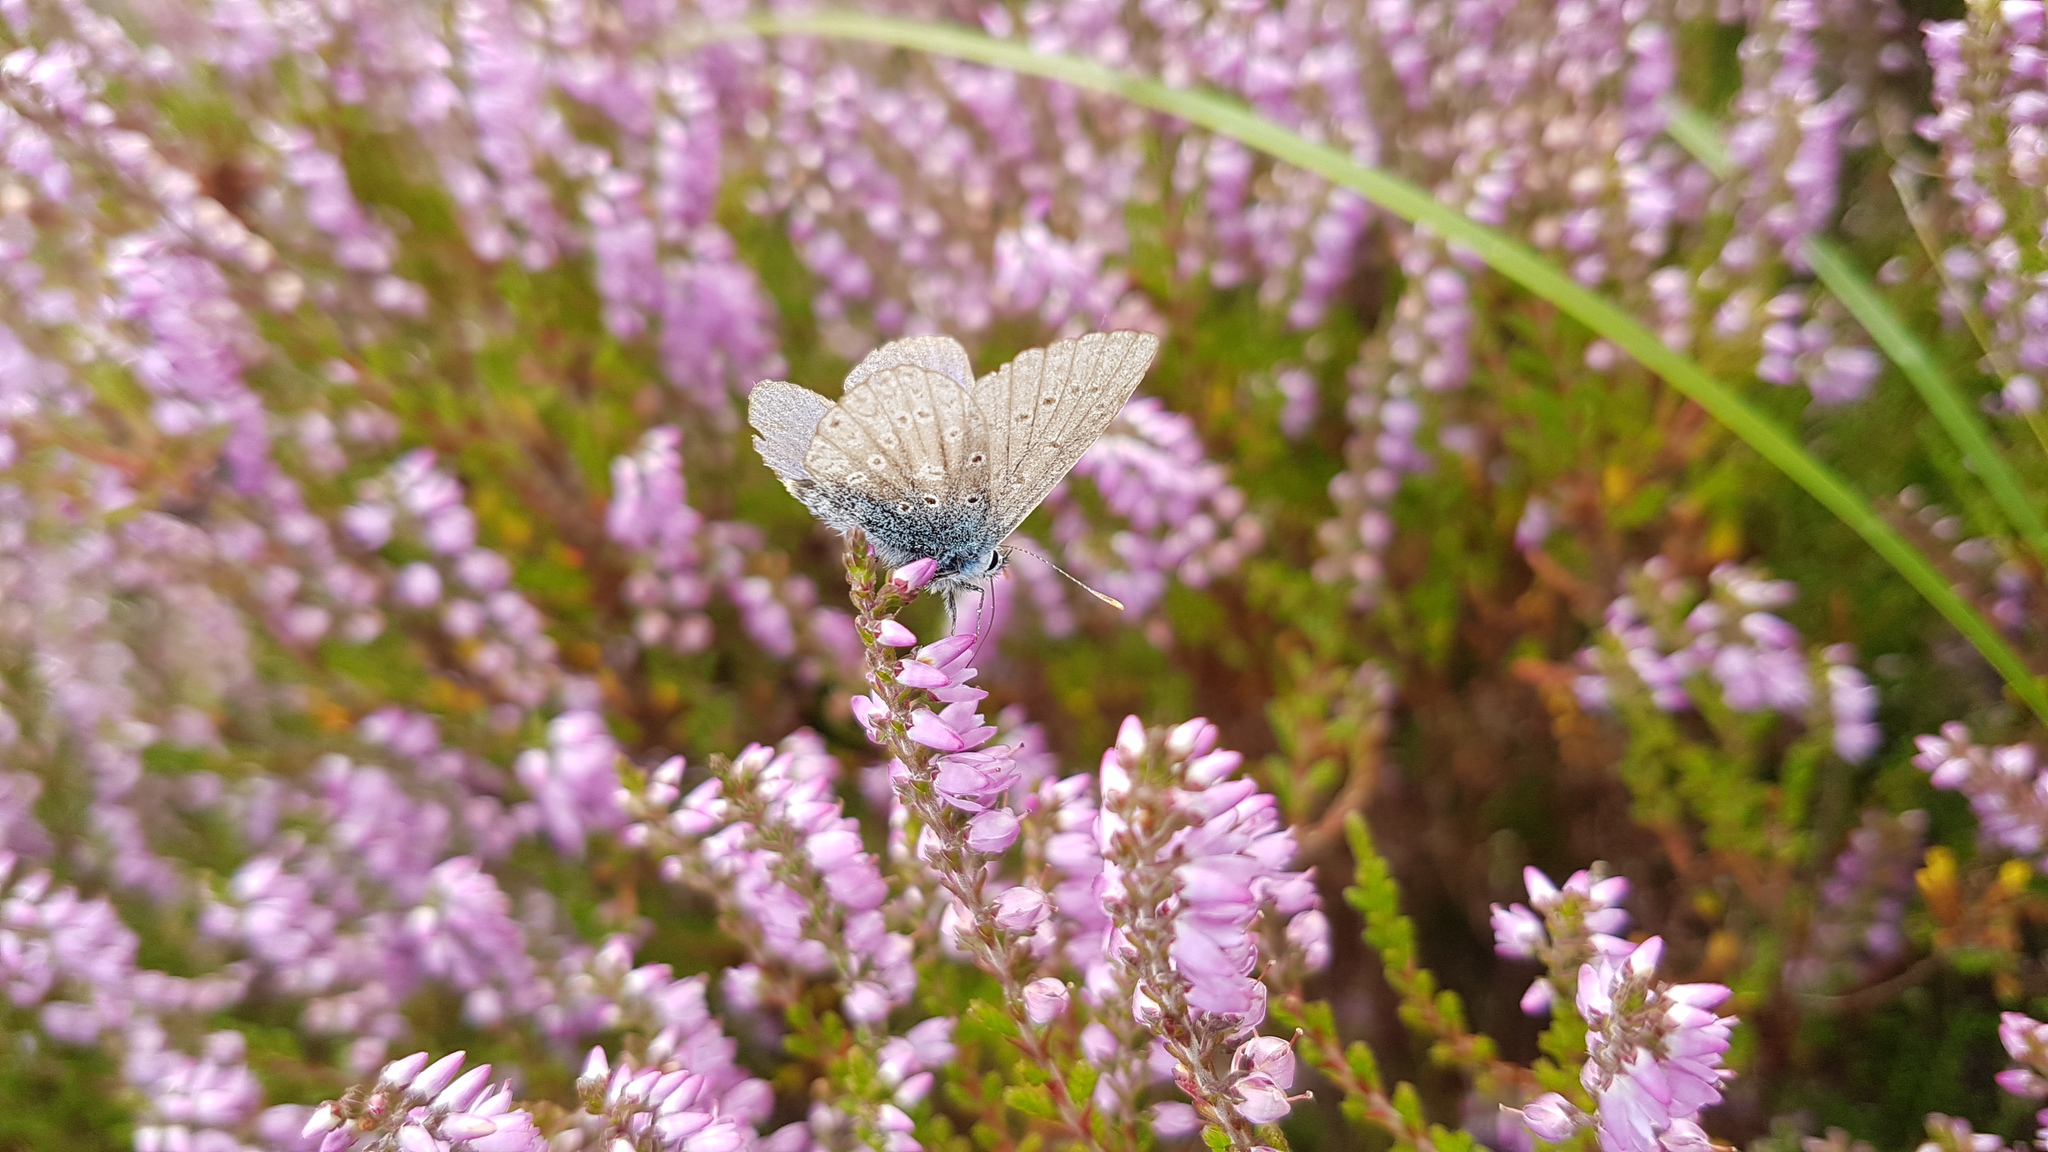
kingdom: Animalia
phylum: Arthropoda
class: Insecta
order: Lepidoptera
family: Lycaenidae
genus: Polyommatus
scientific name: Polyommatus icarus
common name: Common blue
